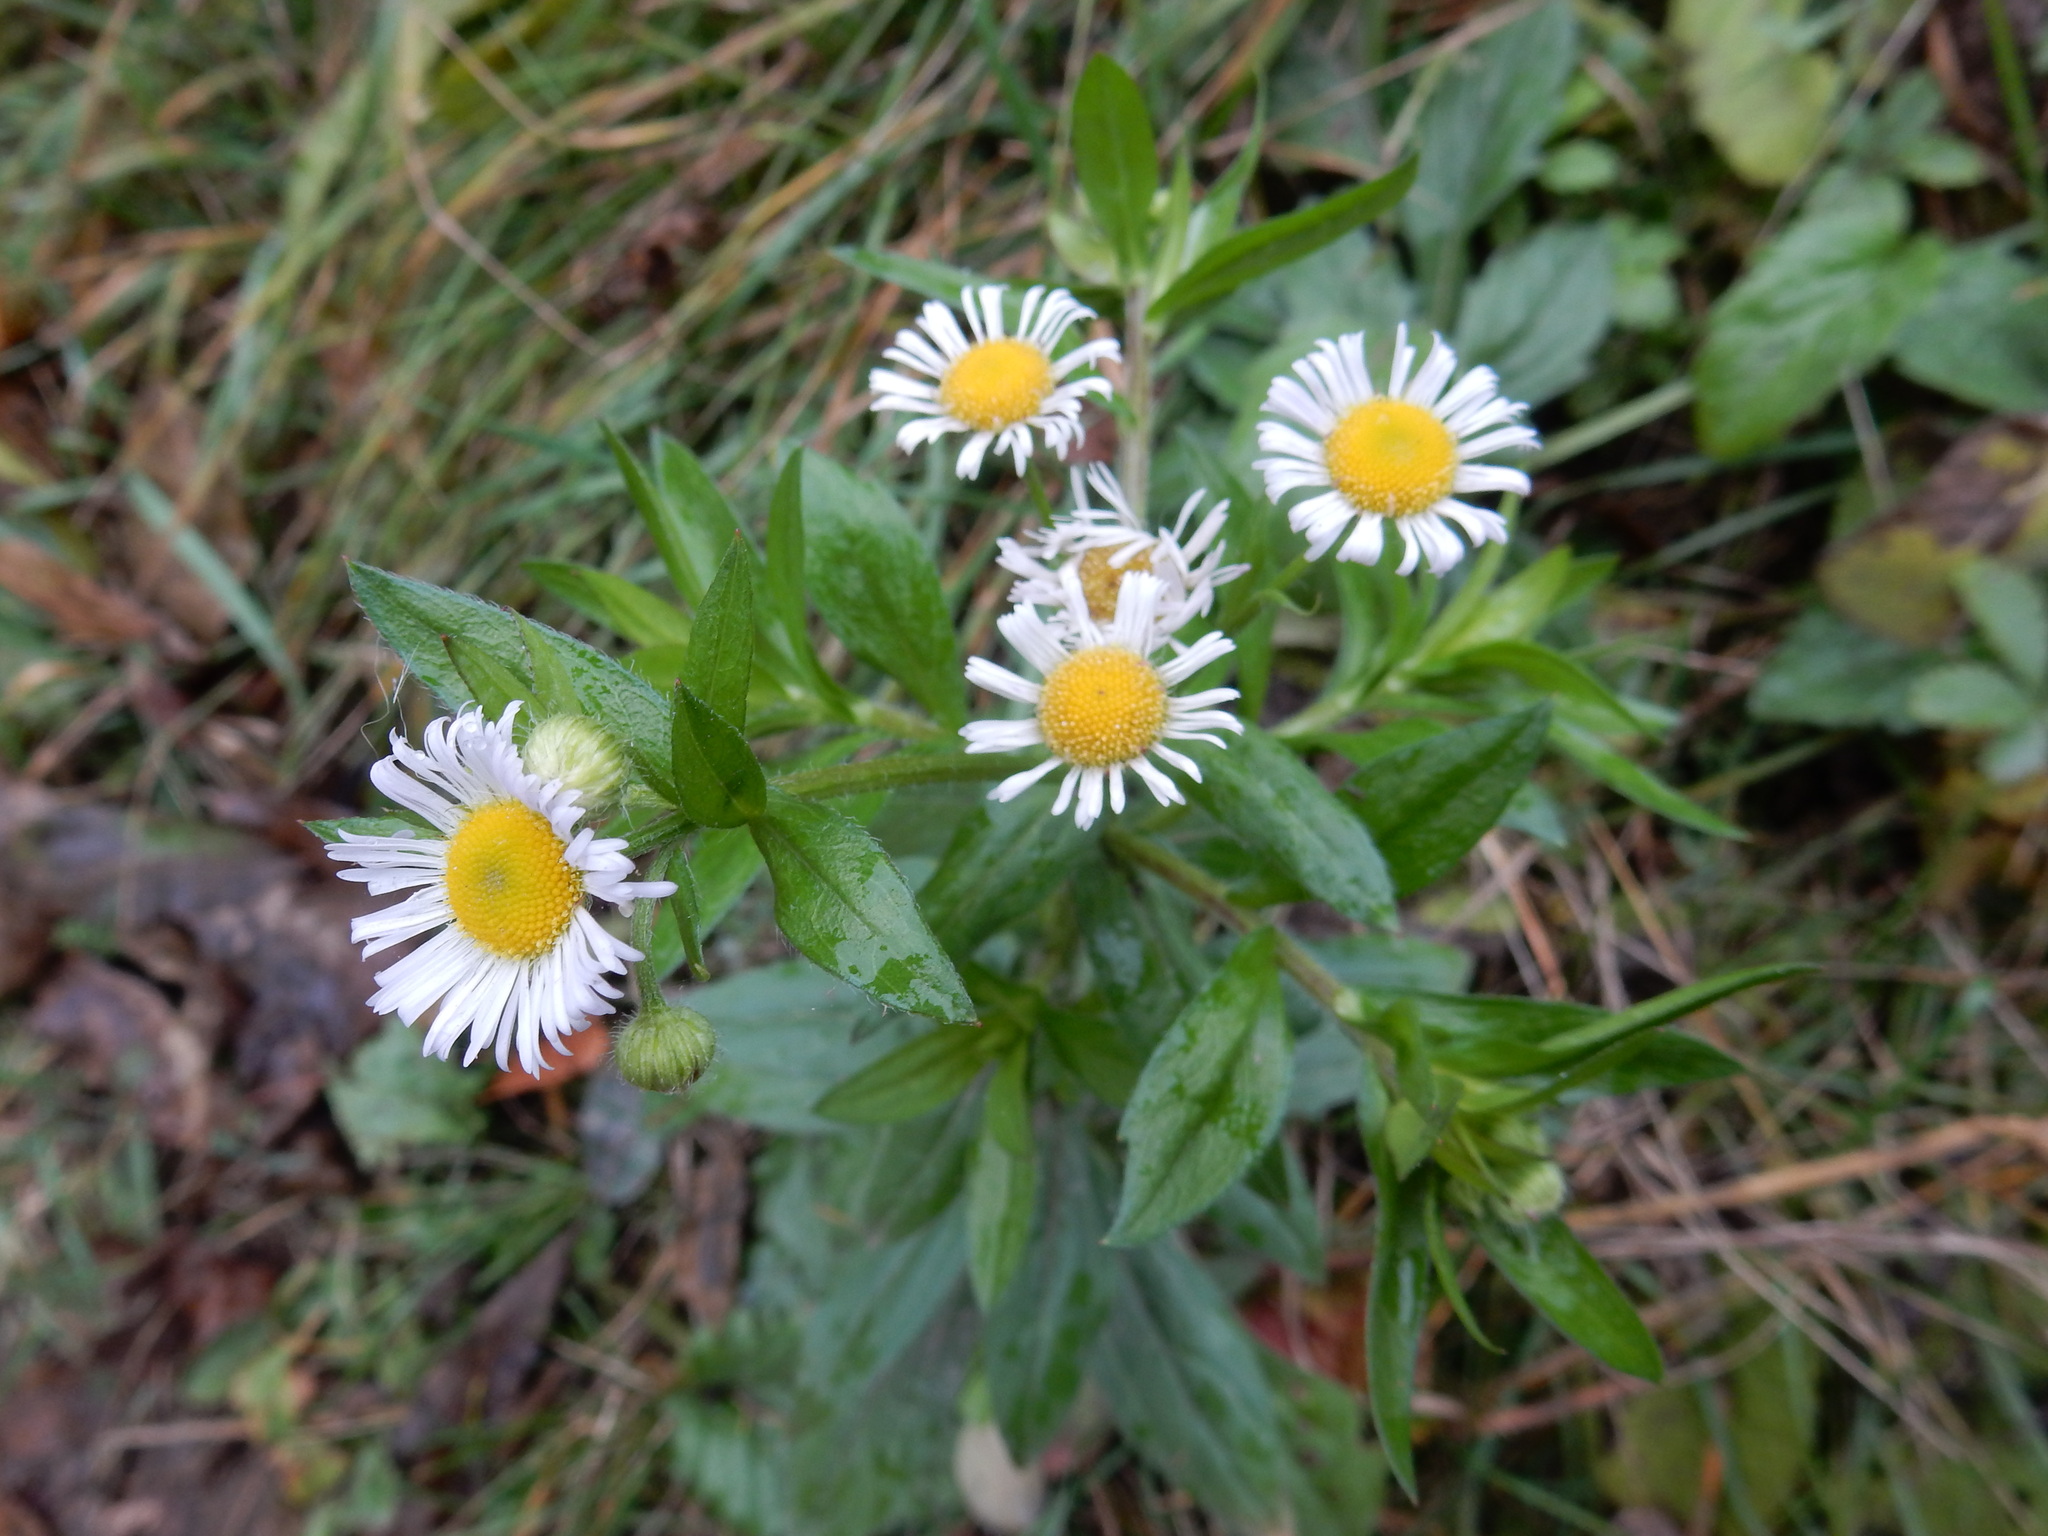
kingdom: Plantae
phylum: Tracheophyta
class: Magnoliopsida
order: Asterales
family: Asteraceae
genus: Erigeron
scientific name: Erigeron annuus
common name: Tall fleabane
